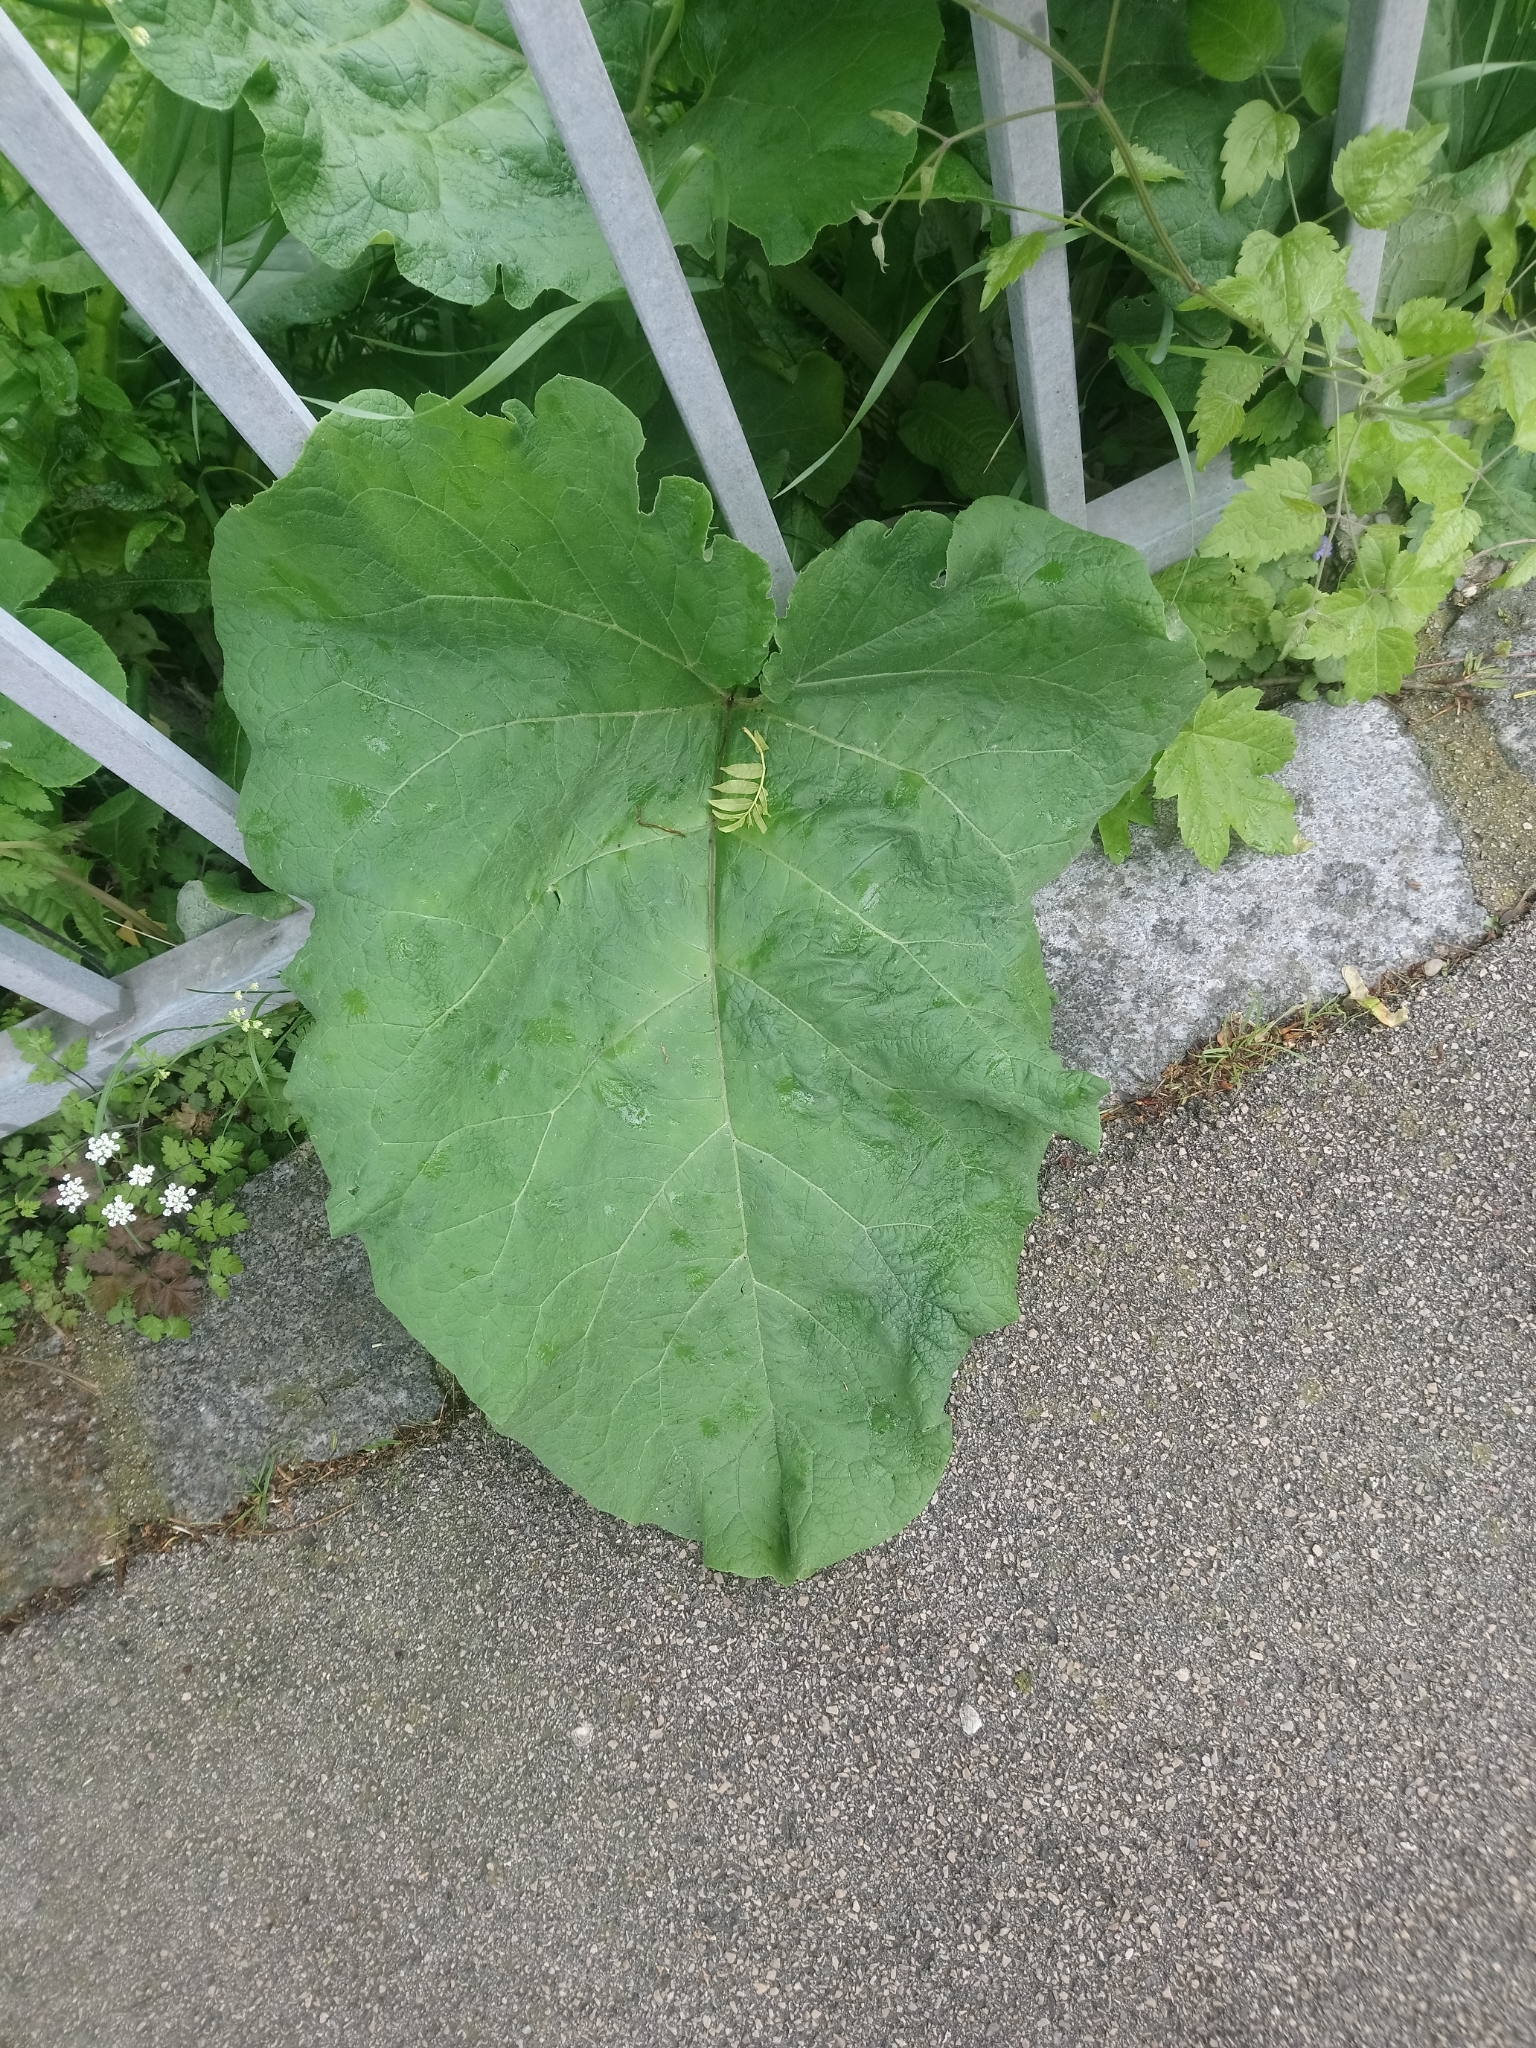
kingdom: Plantae
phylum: Tracheophyta
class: Magnoliopsida
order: Asterales
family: Asteraceae
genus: Arctium
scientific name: Arctium lappa
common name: Greater burdock
